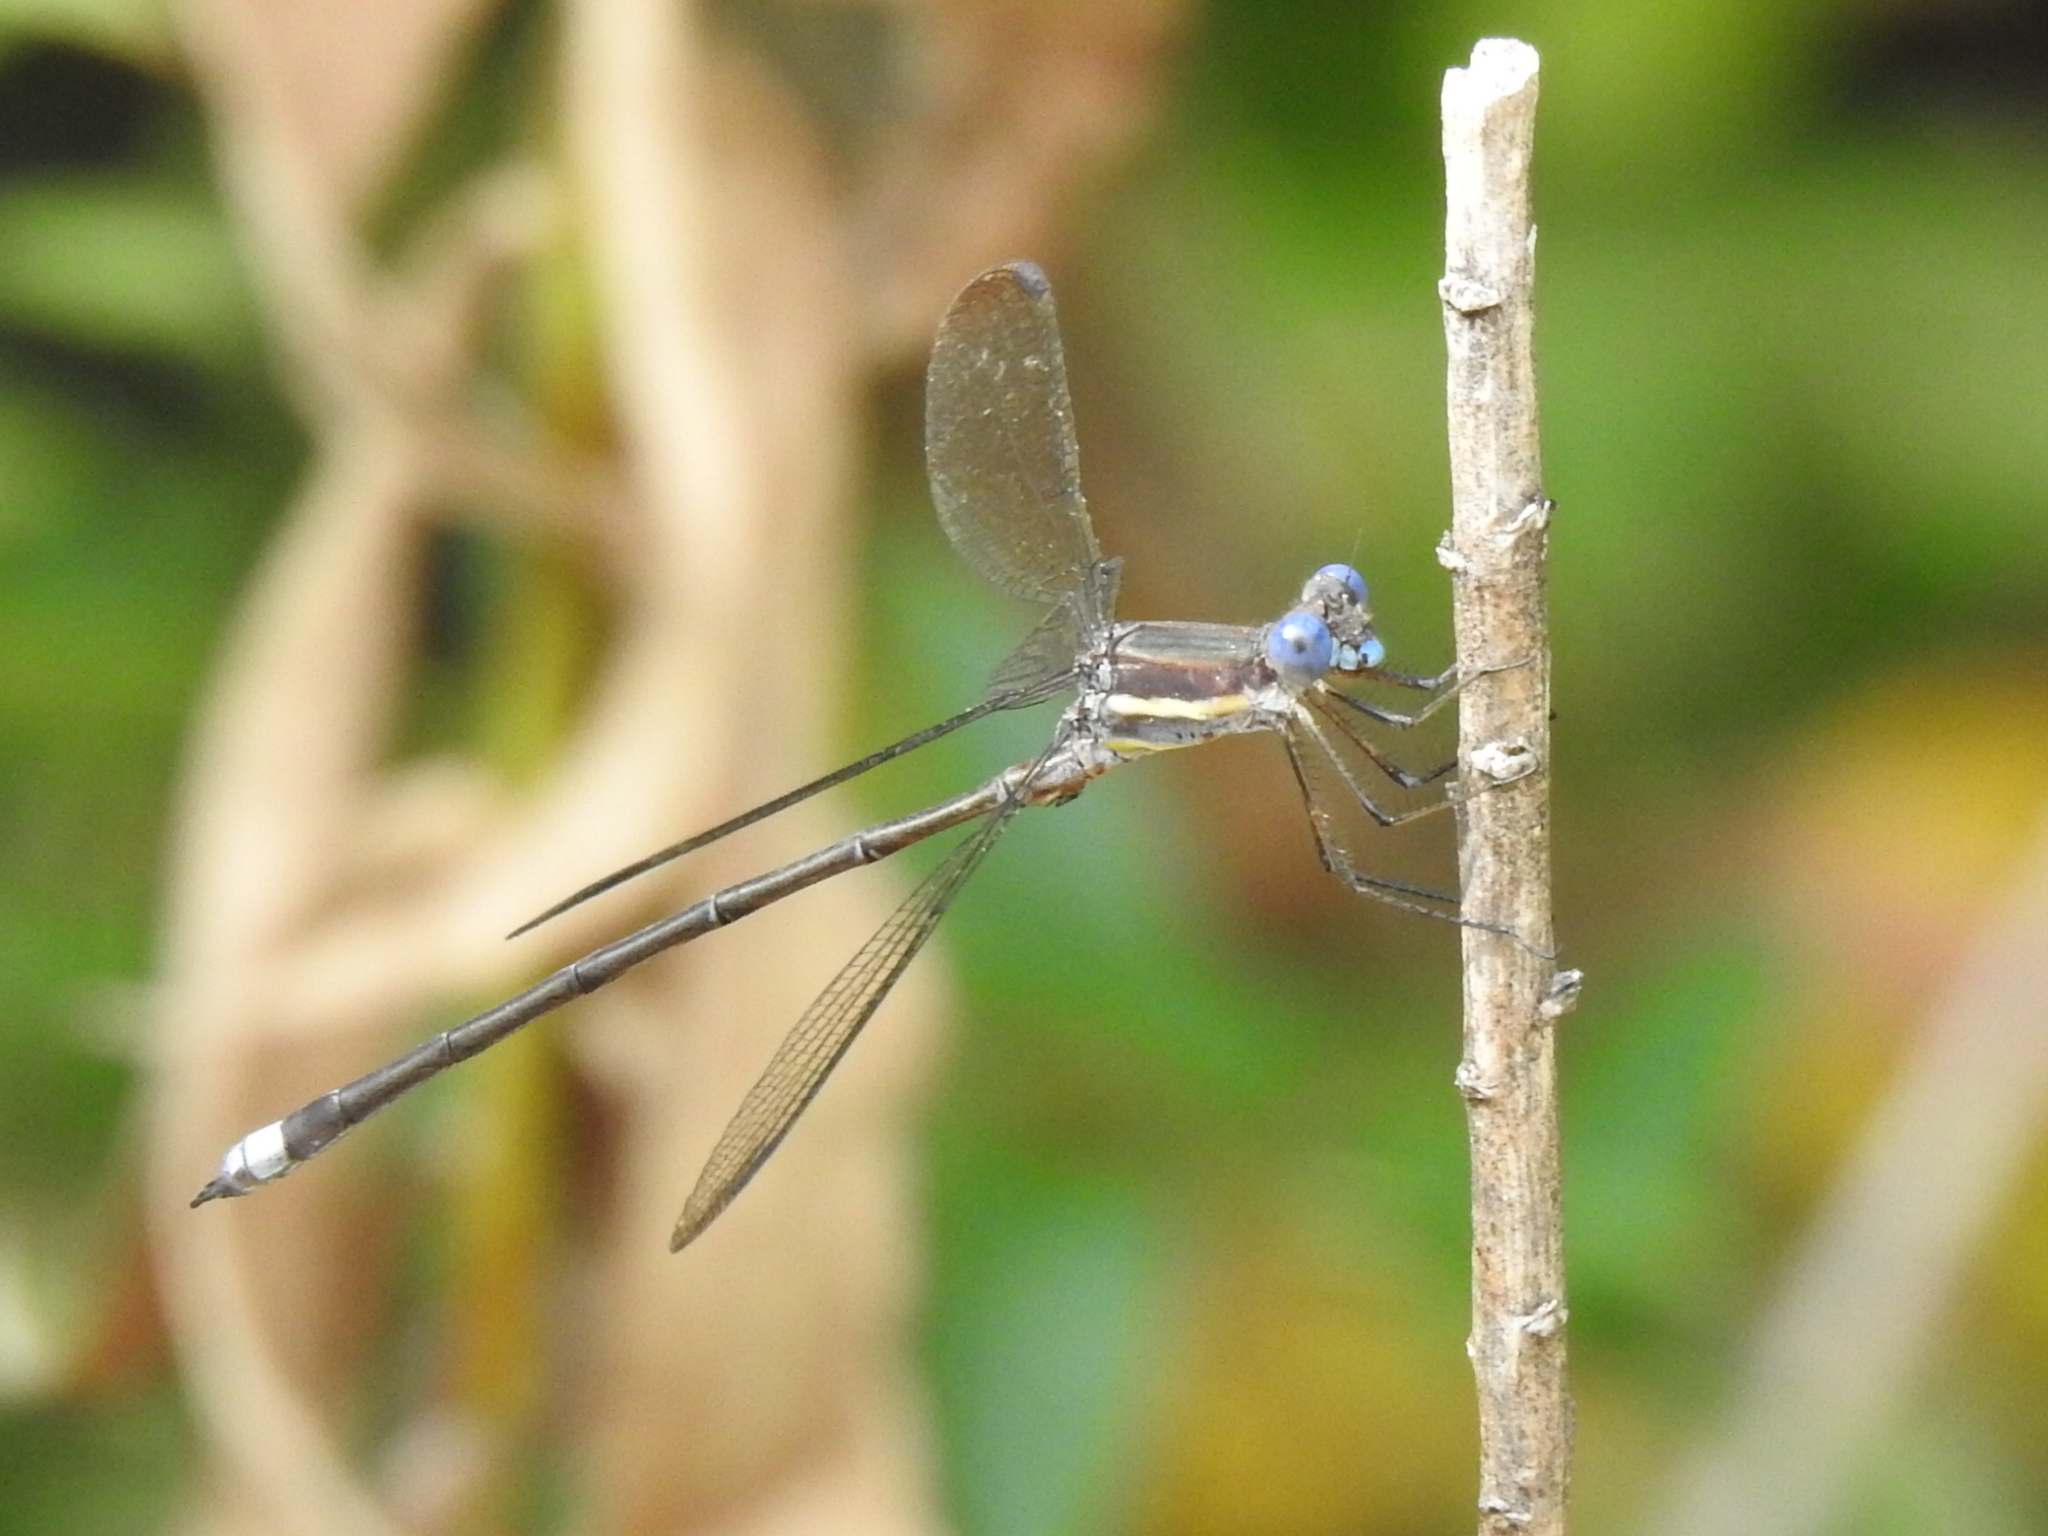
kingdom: Animalia
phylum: Arthropoda
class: Insecta
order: Odonata
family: Lestidae
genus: Archilestes
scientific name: Archilestes grandis
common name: Great spreadwing
